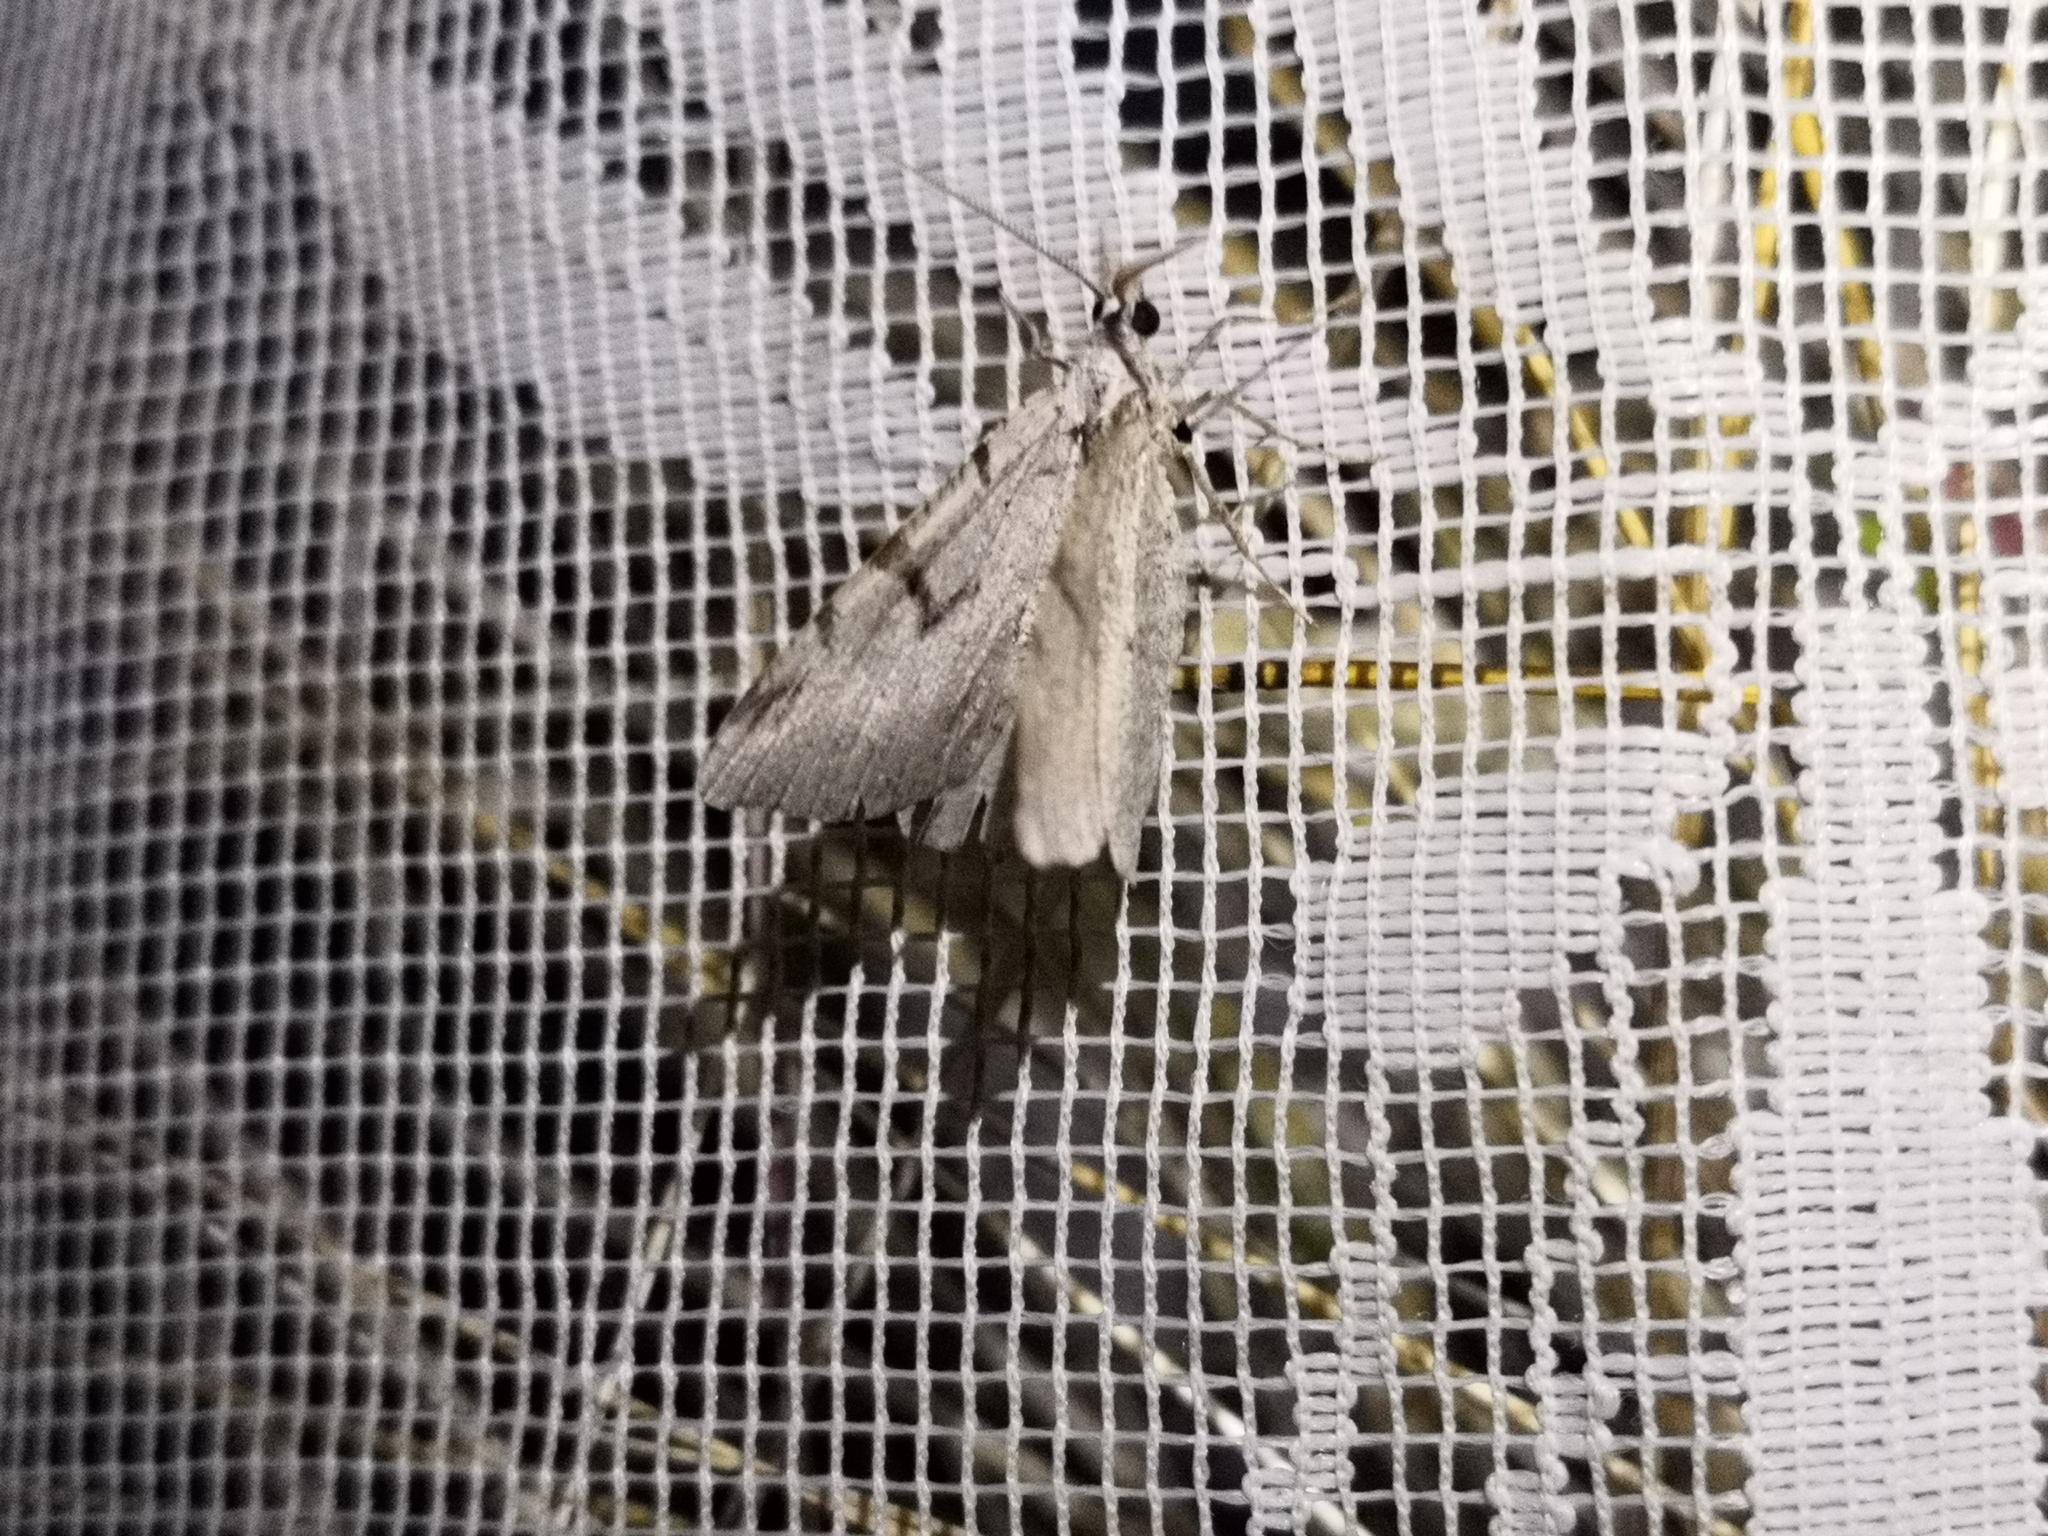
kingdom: Animalia
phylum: Arthropoda
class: Insecta
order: Lepidoptera
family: Geometridae
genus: Macaria
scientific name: Macaria wauaria
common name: V-moth
